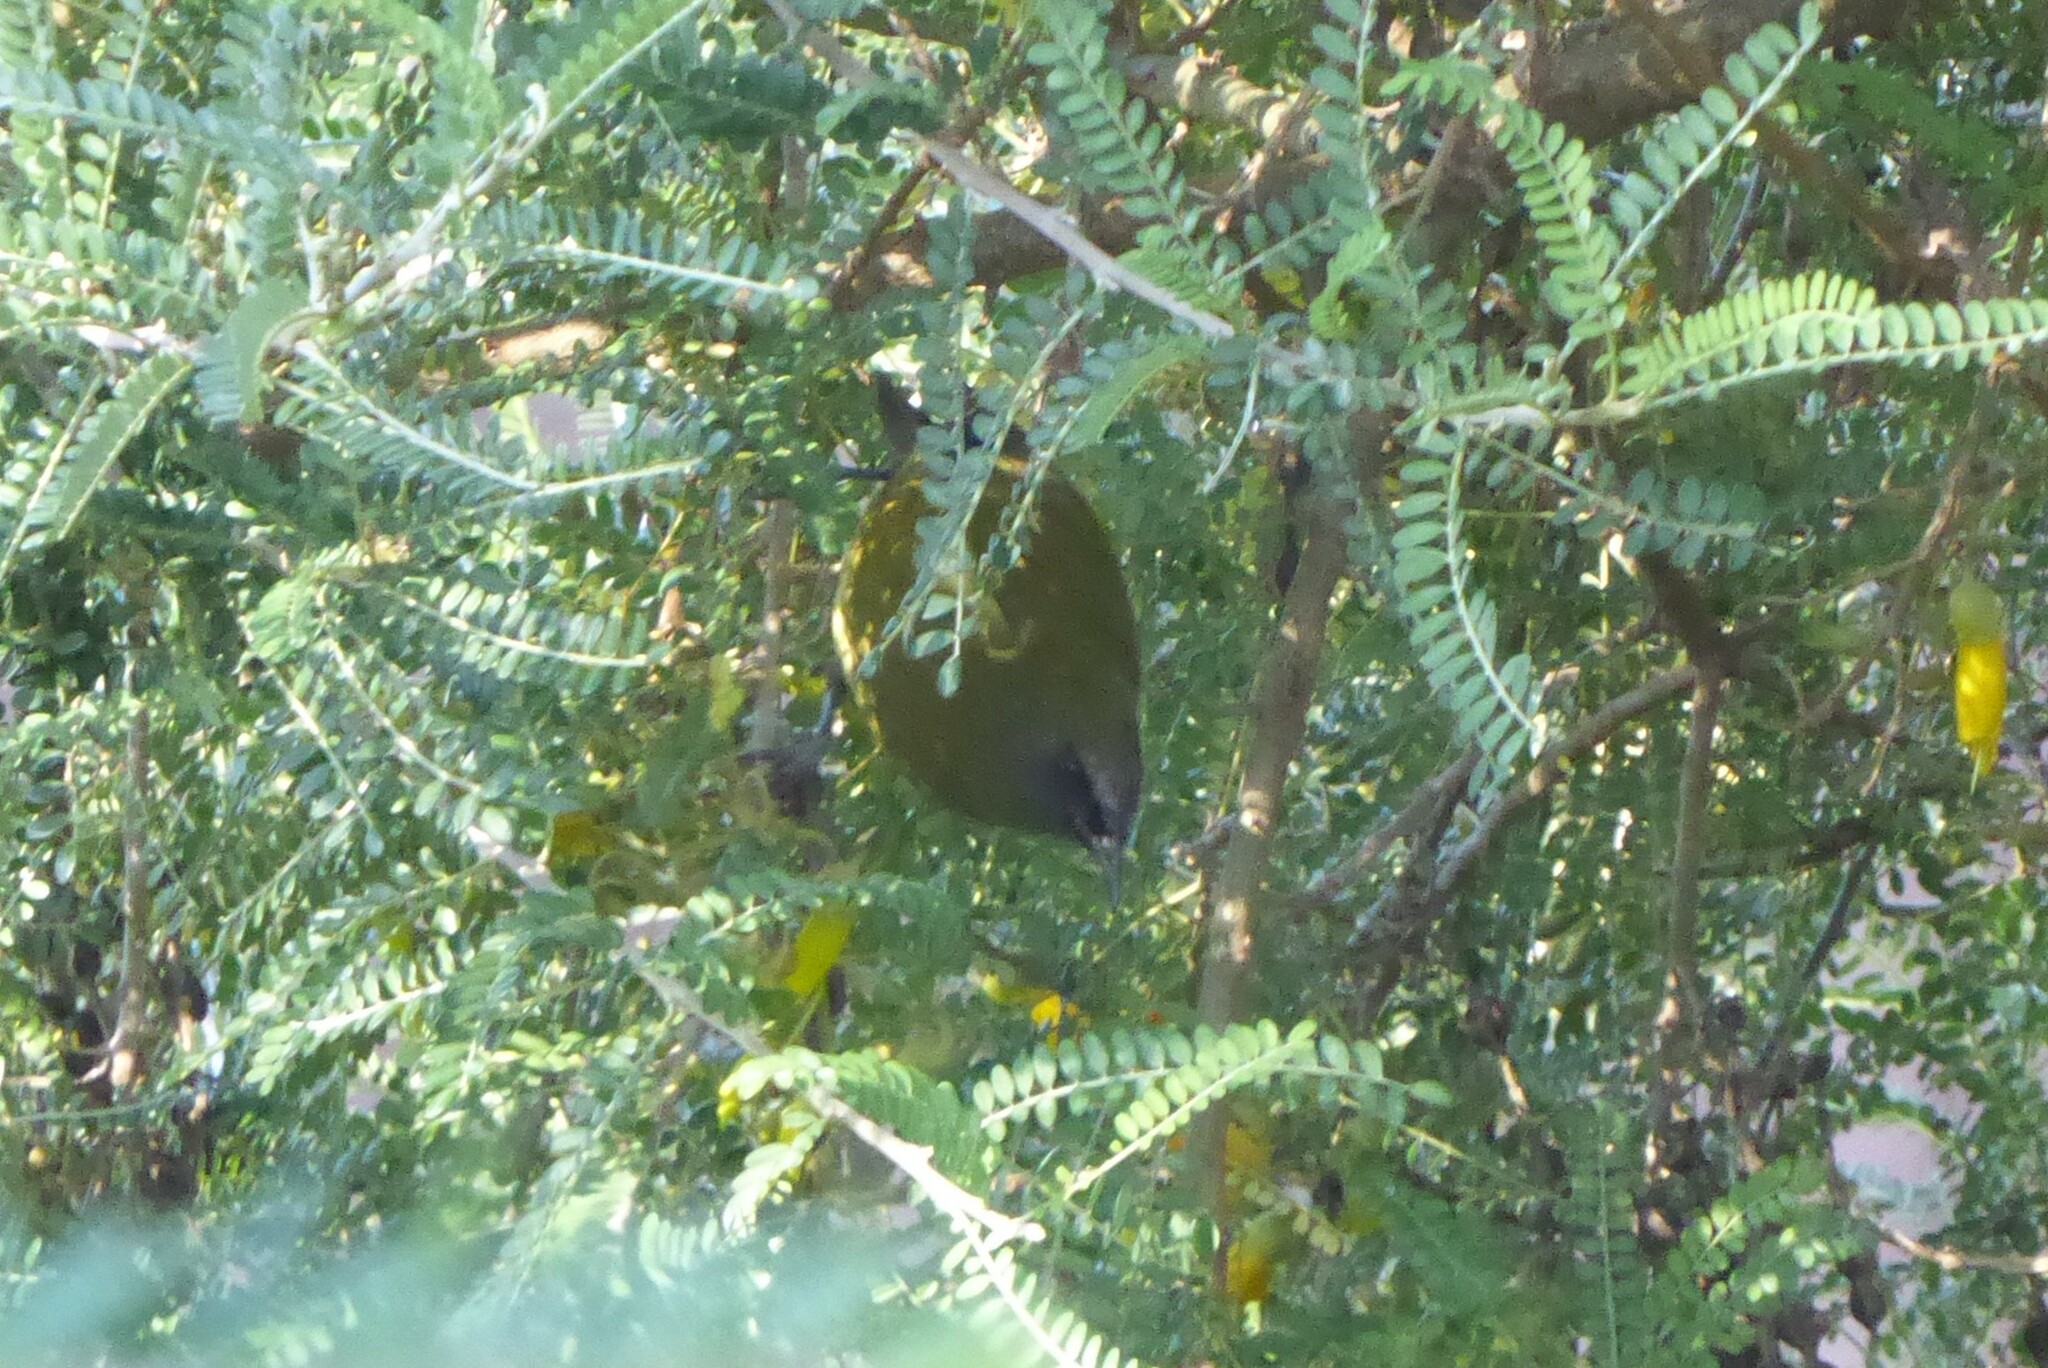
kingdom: Animalia
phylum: Chordata
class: Aves
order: Passeriformes
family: Meliphagidae
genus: Anthornis
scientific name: Anthornis melanura
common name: New zealand bellbird
